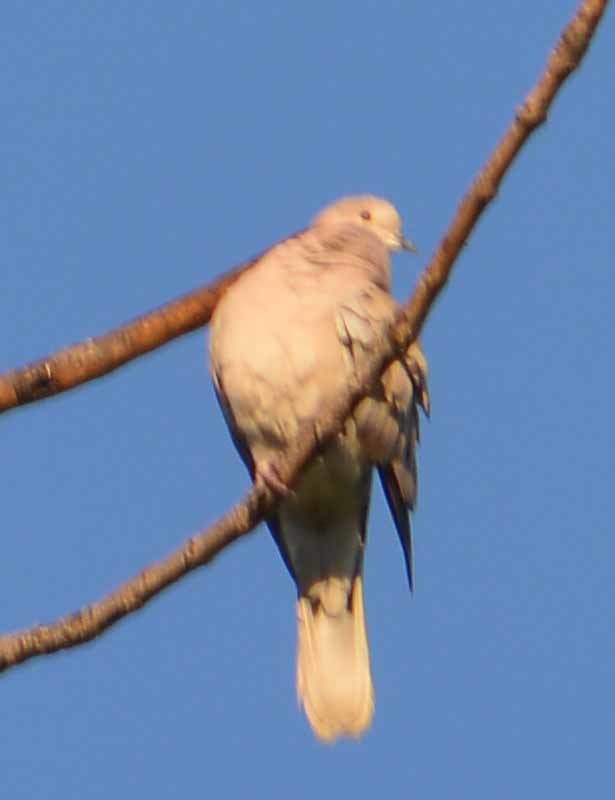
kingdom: Animalia
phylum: Chordata
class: Aves
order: Columbiformes
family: Columbidae
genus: Streptopelia
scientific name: Streptopelia decaocto
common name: Eurasian collared dove
